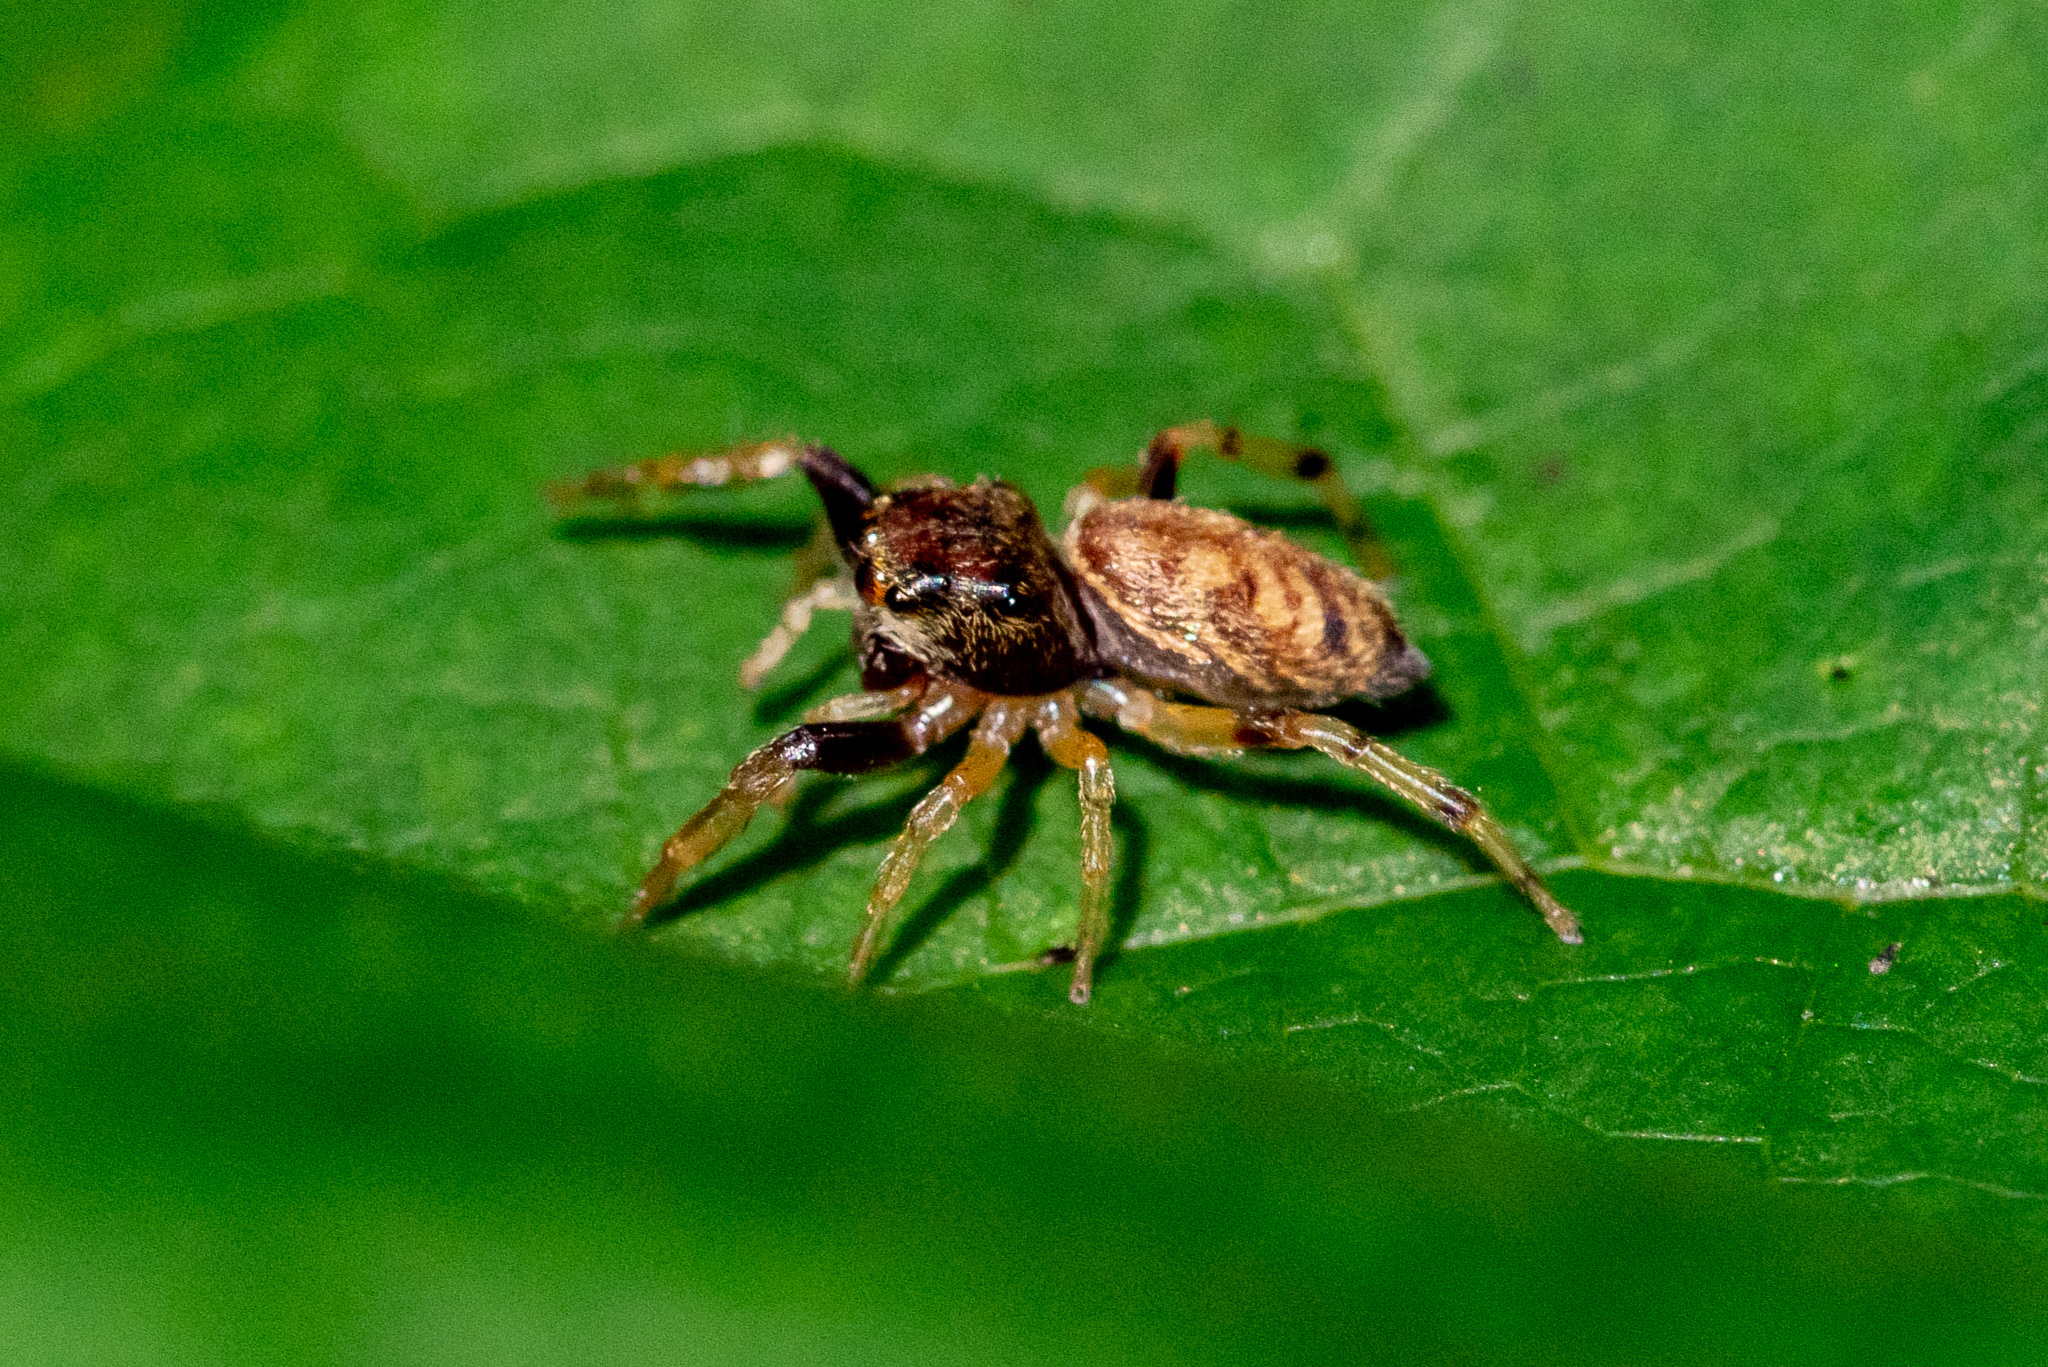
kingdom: Animalia
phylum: Arthropoda
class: Arachnida
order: Araneae
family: Salticidae
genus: Zygoballus
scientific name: Zygoballus rufipes
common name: Jumping spiders
